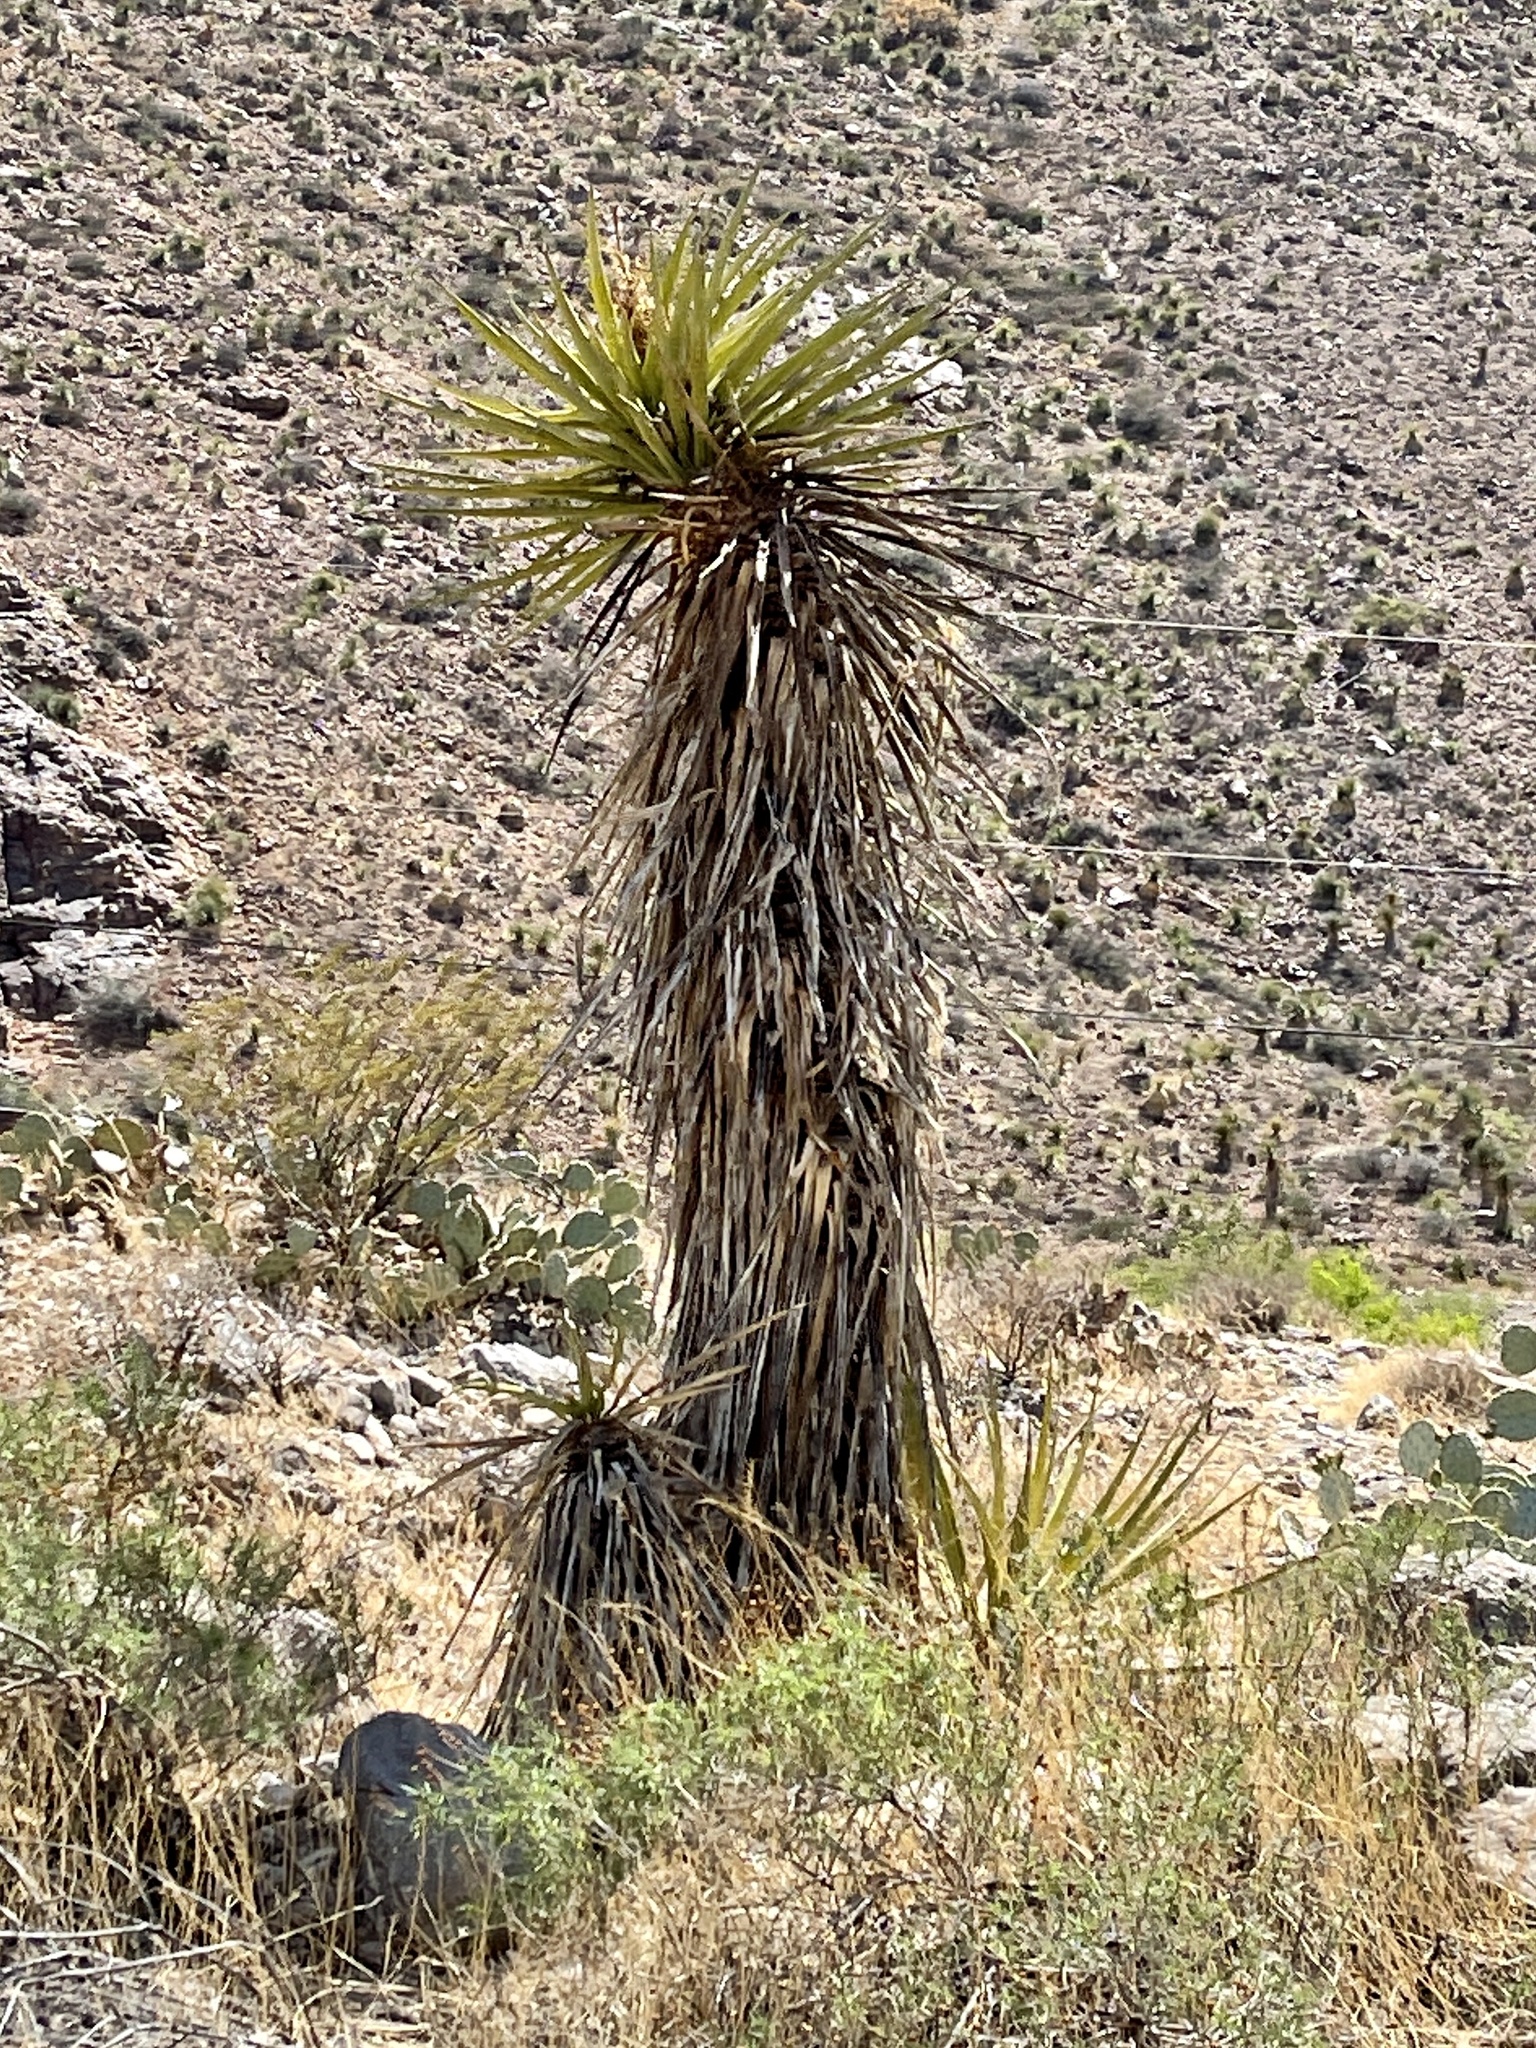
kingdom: Plantae
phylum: Tracheophyta
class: Liliopsida
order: Asparagales
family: Asparagaceae
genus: Yucca
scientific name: Yucca treculiana
